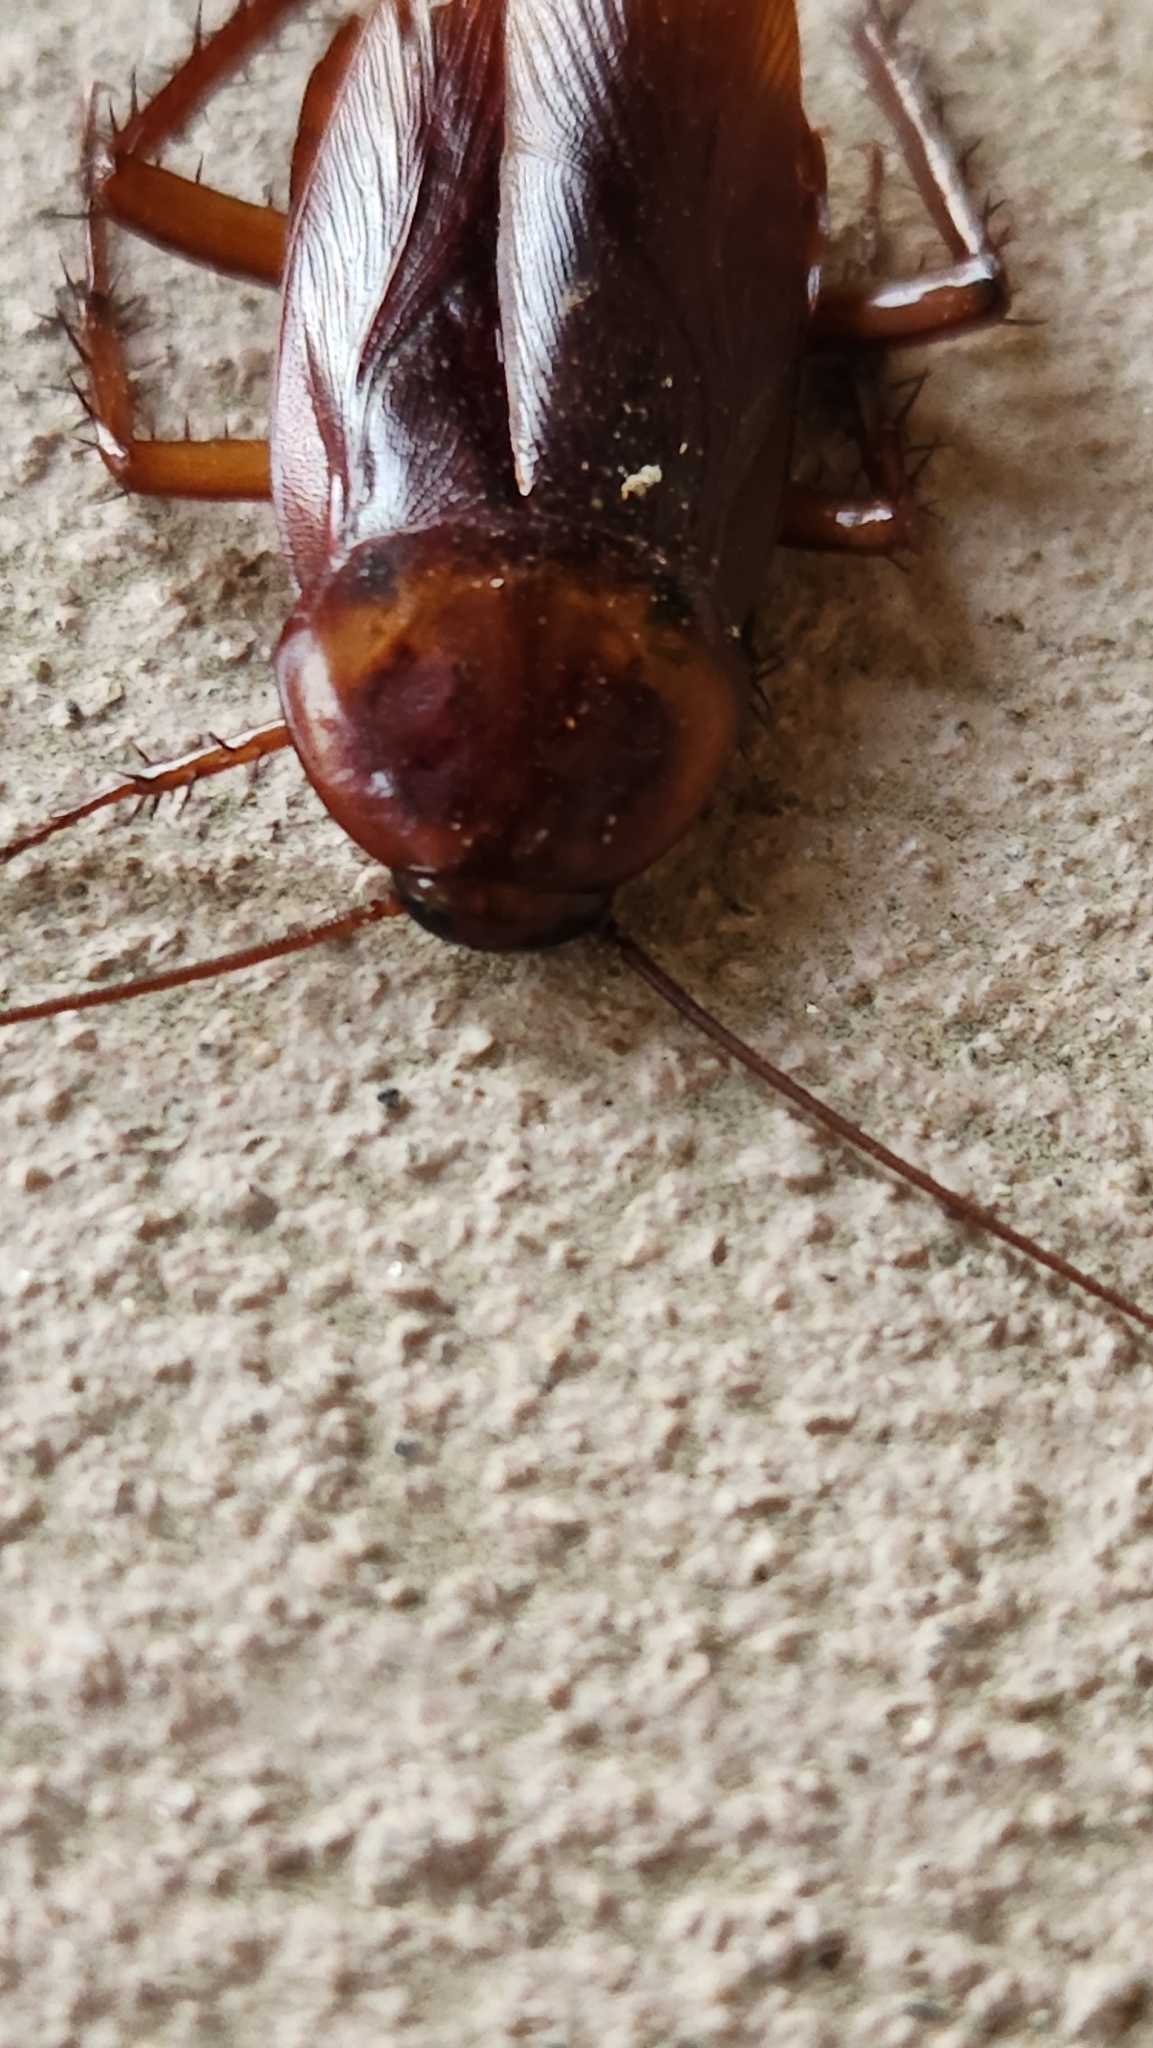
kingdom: Animalia
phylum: Arthropoda
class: Insecta
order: Blattodea
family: Blattidae
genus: Periplaneta
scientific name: Periplaneta americana
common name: American cockroach
